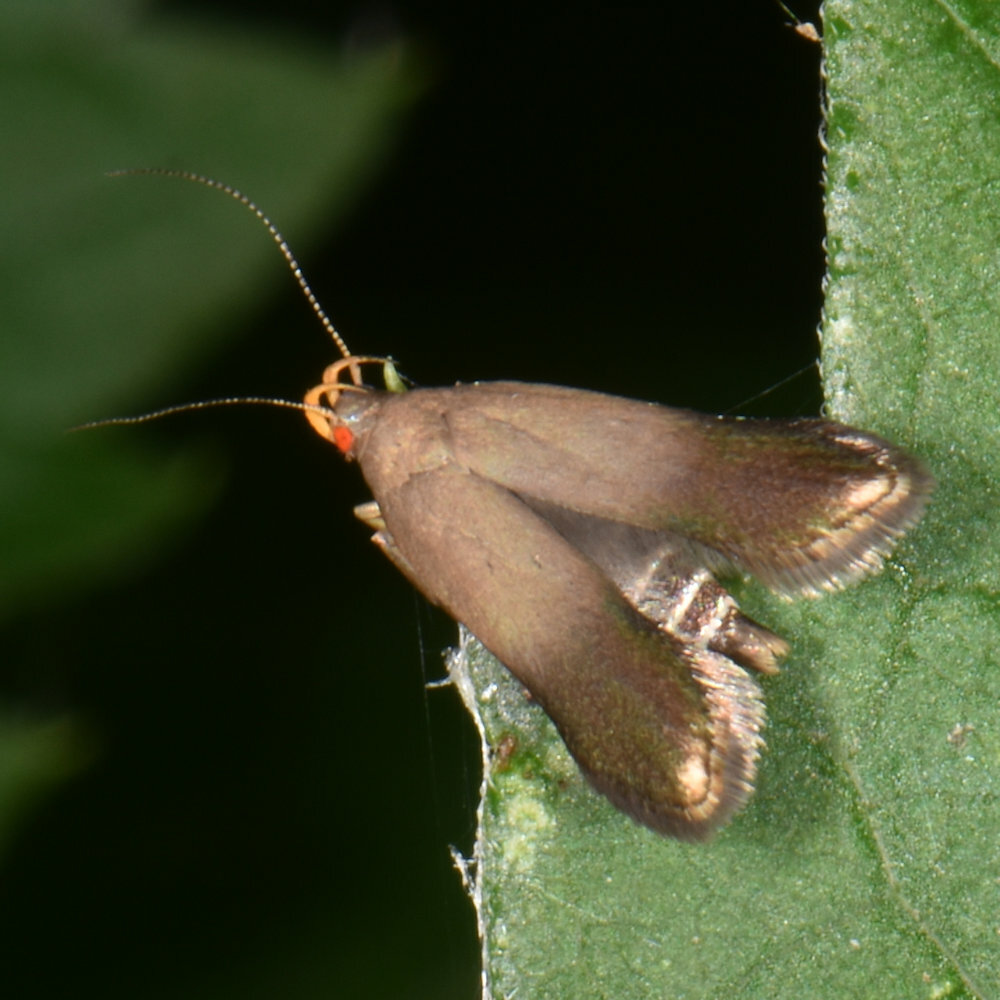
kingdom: Animalia
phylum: Arthropoda
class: Insecta
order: Lepidoptera
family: Gelechiidae
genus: Anacampsis
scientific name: Anacampsis nonstrigella
